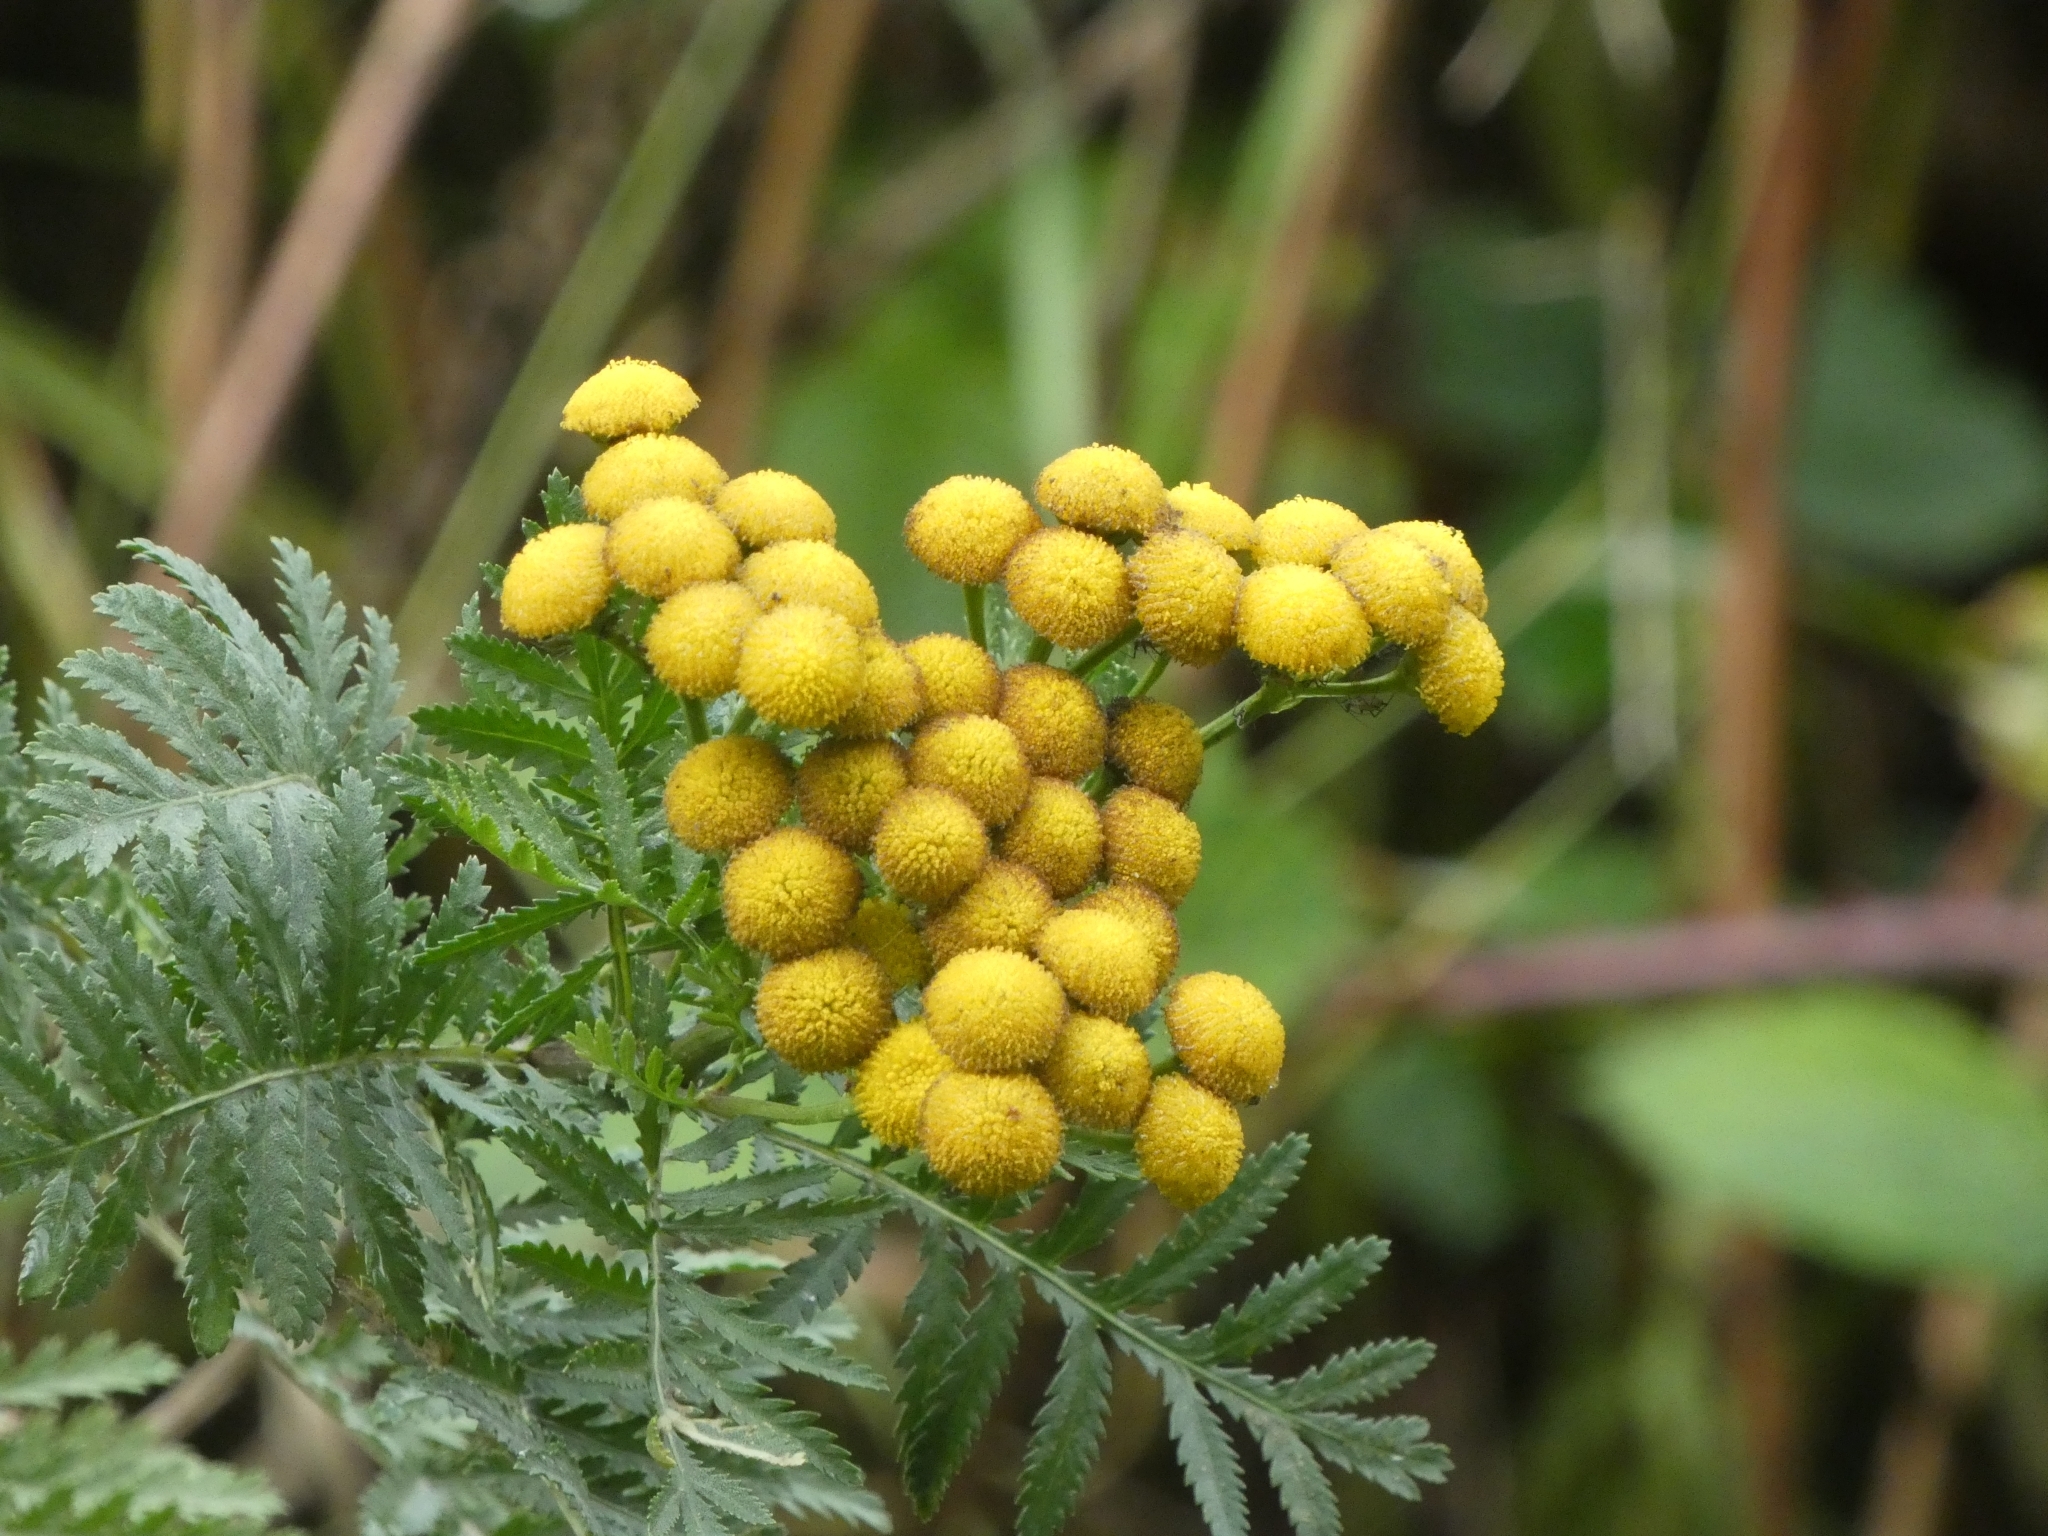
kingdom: Plantae
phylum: Tracheophyta
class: Magnoliopsida
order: Asterales
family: Asteraceae
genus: Tanacetum
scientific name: Tanacetum vulgare
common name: Common tansy
